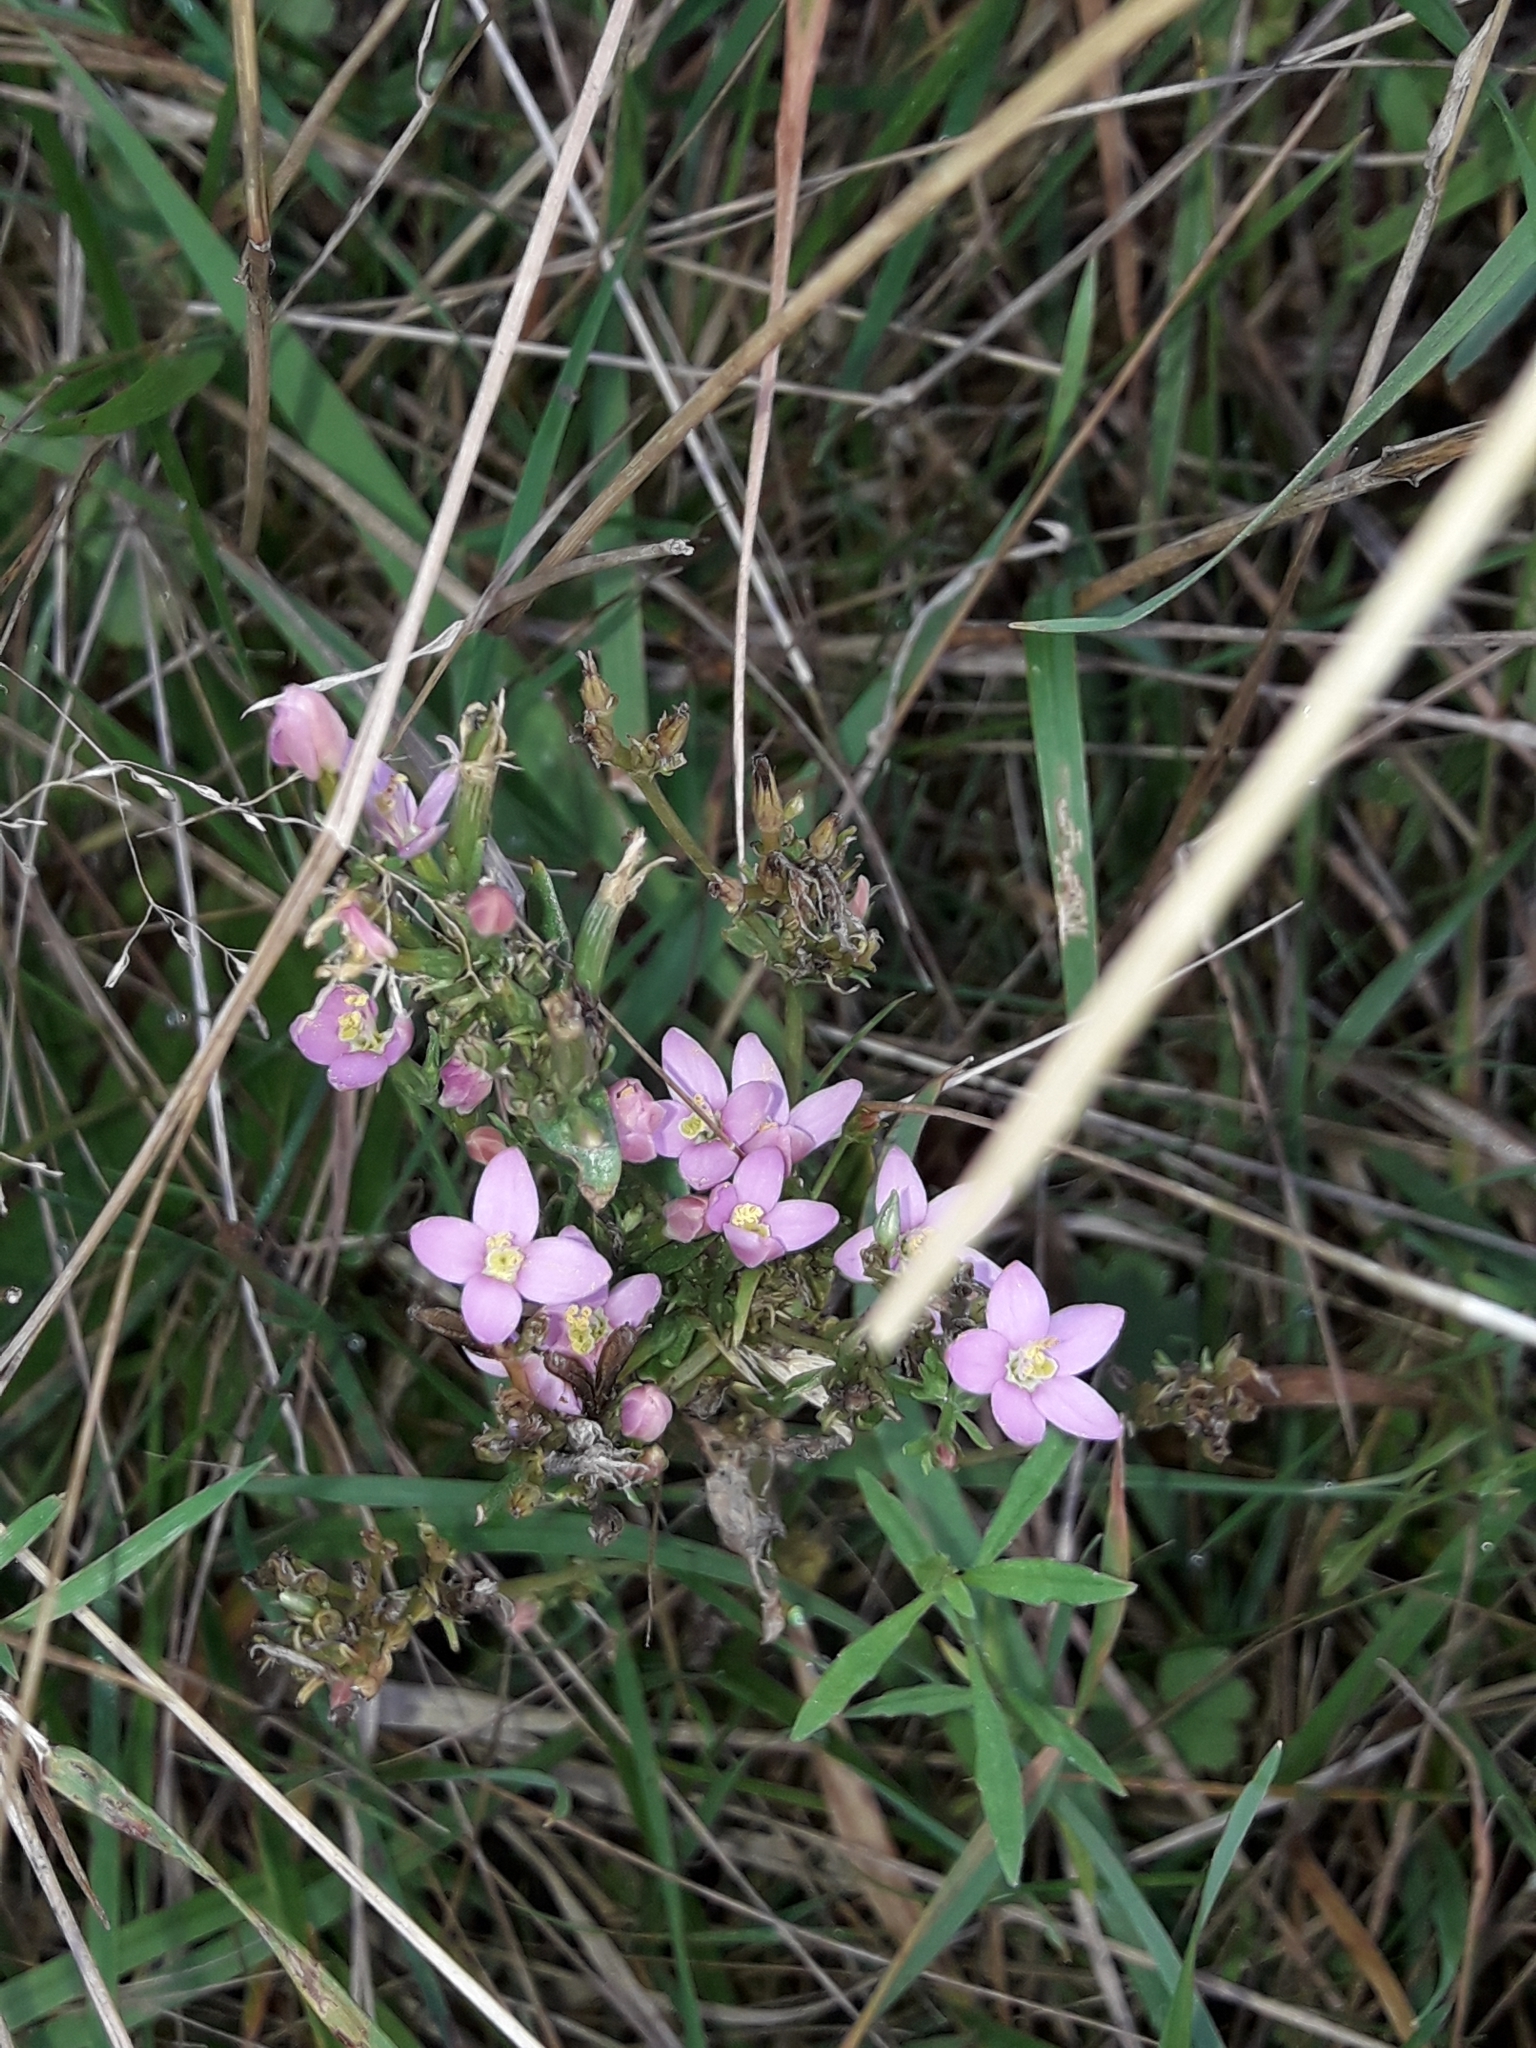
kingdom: Plantae
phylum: Tracheophyta
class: Magnoliopsida
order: Gentianales
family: Gentianaceae
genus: Centaurium
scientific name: Centaurium erythraea
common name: Common centaury
